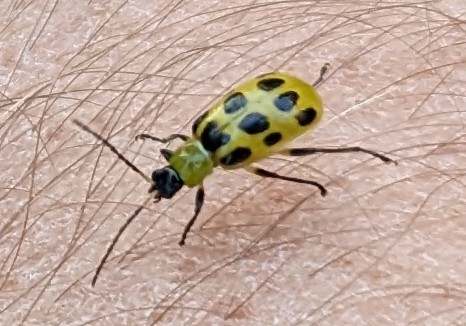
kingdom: Animalia
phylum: Arthropoda
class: Insecta
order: Coleoptera
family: Chrysomelidae
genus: Diabrotica
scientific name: Diabrotica undecimpunctata
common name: Spotted cucumber beetle
